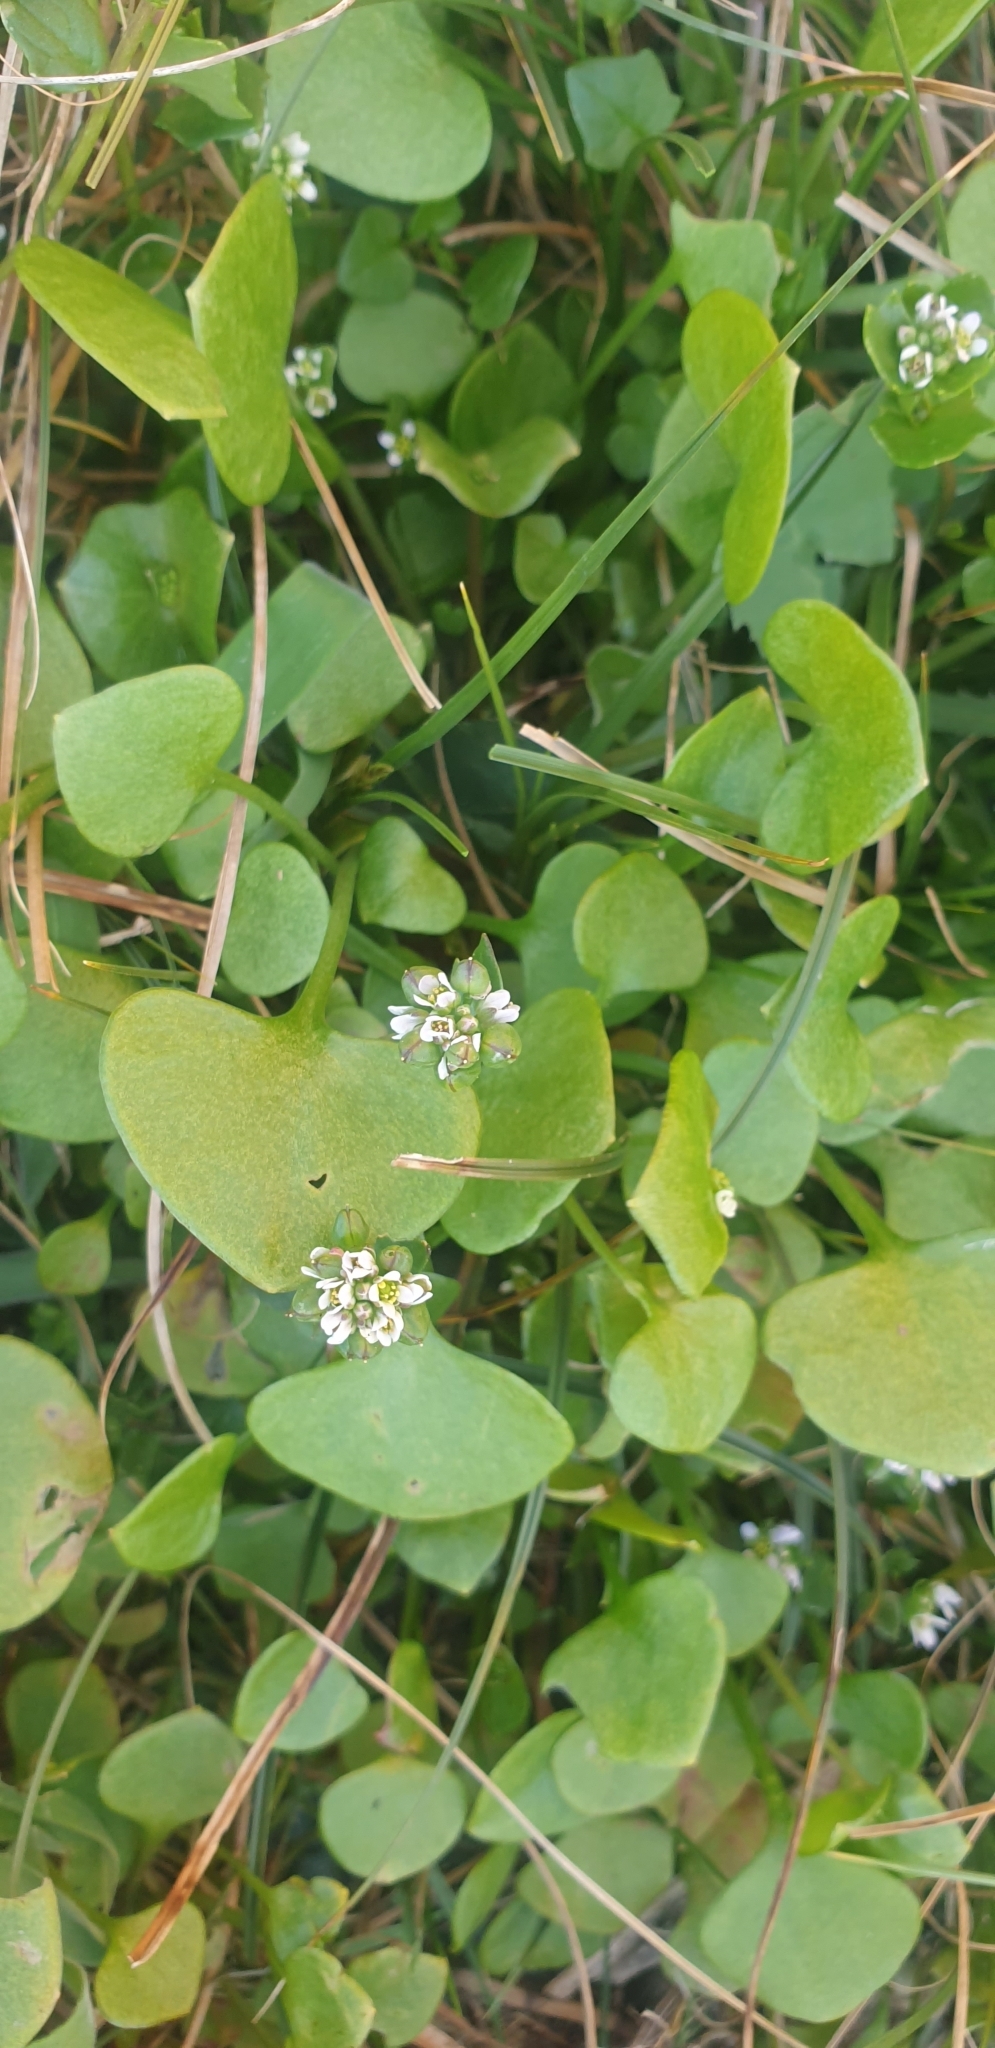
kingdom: Plantae
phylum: Tracheophyta
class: Magnoliopsida
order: Caryophyllales
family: Montiaceae
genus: Claytonia
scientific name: Claytonia perfoliata
